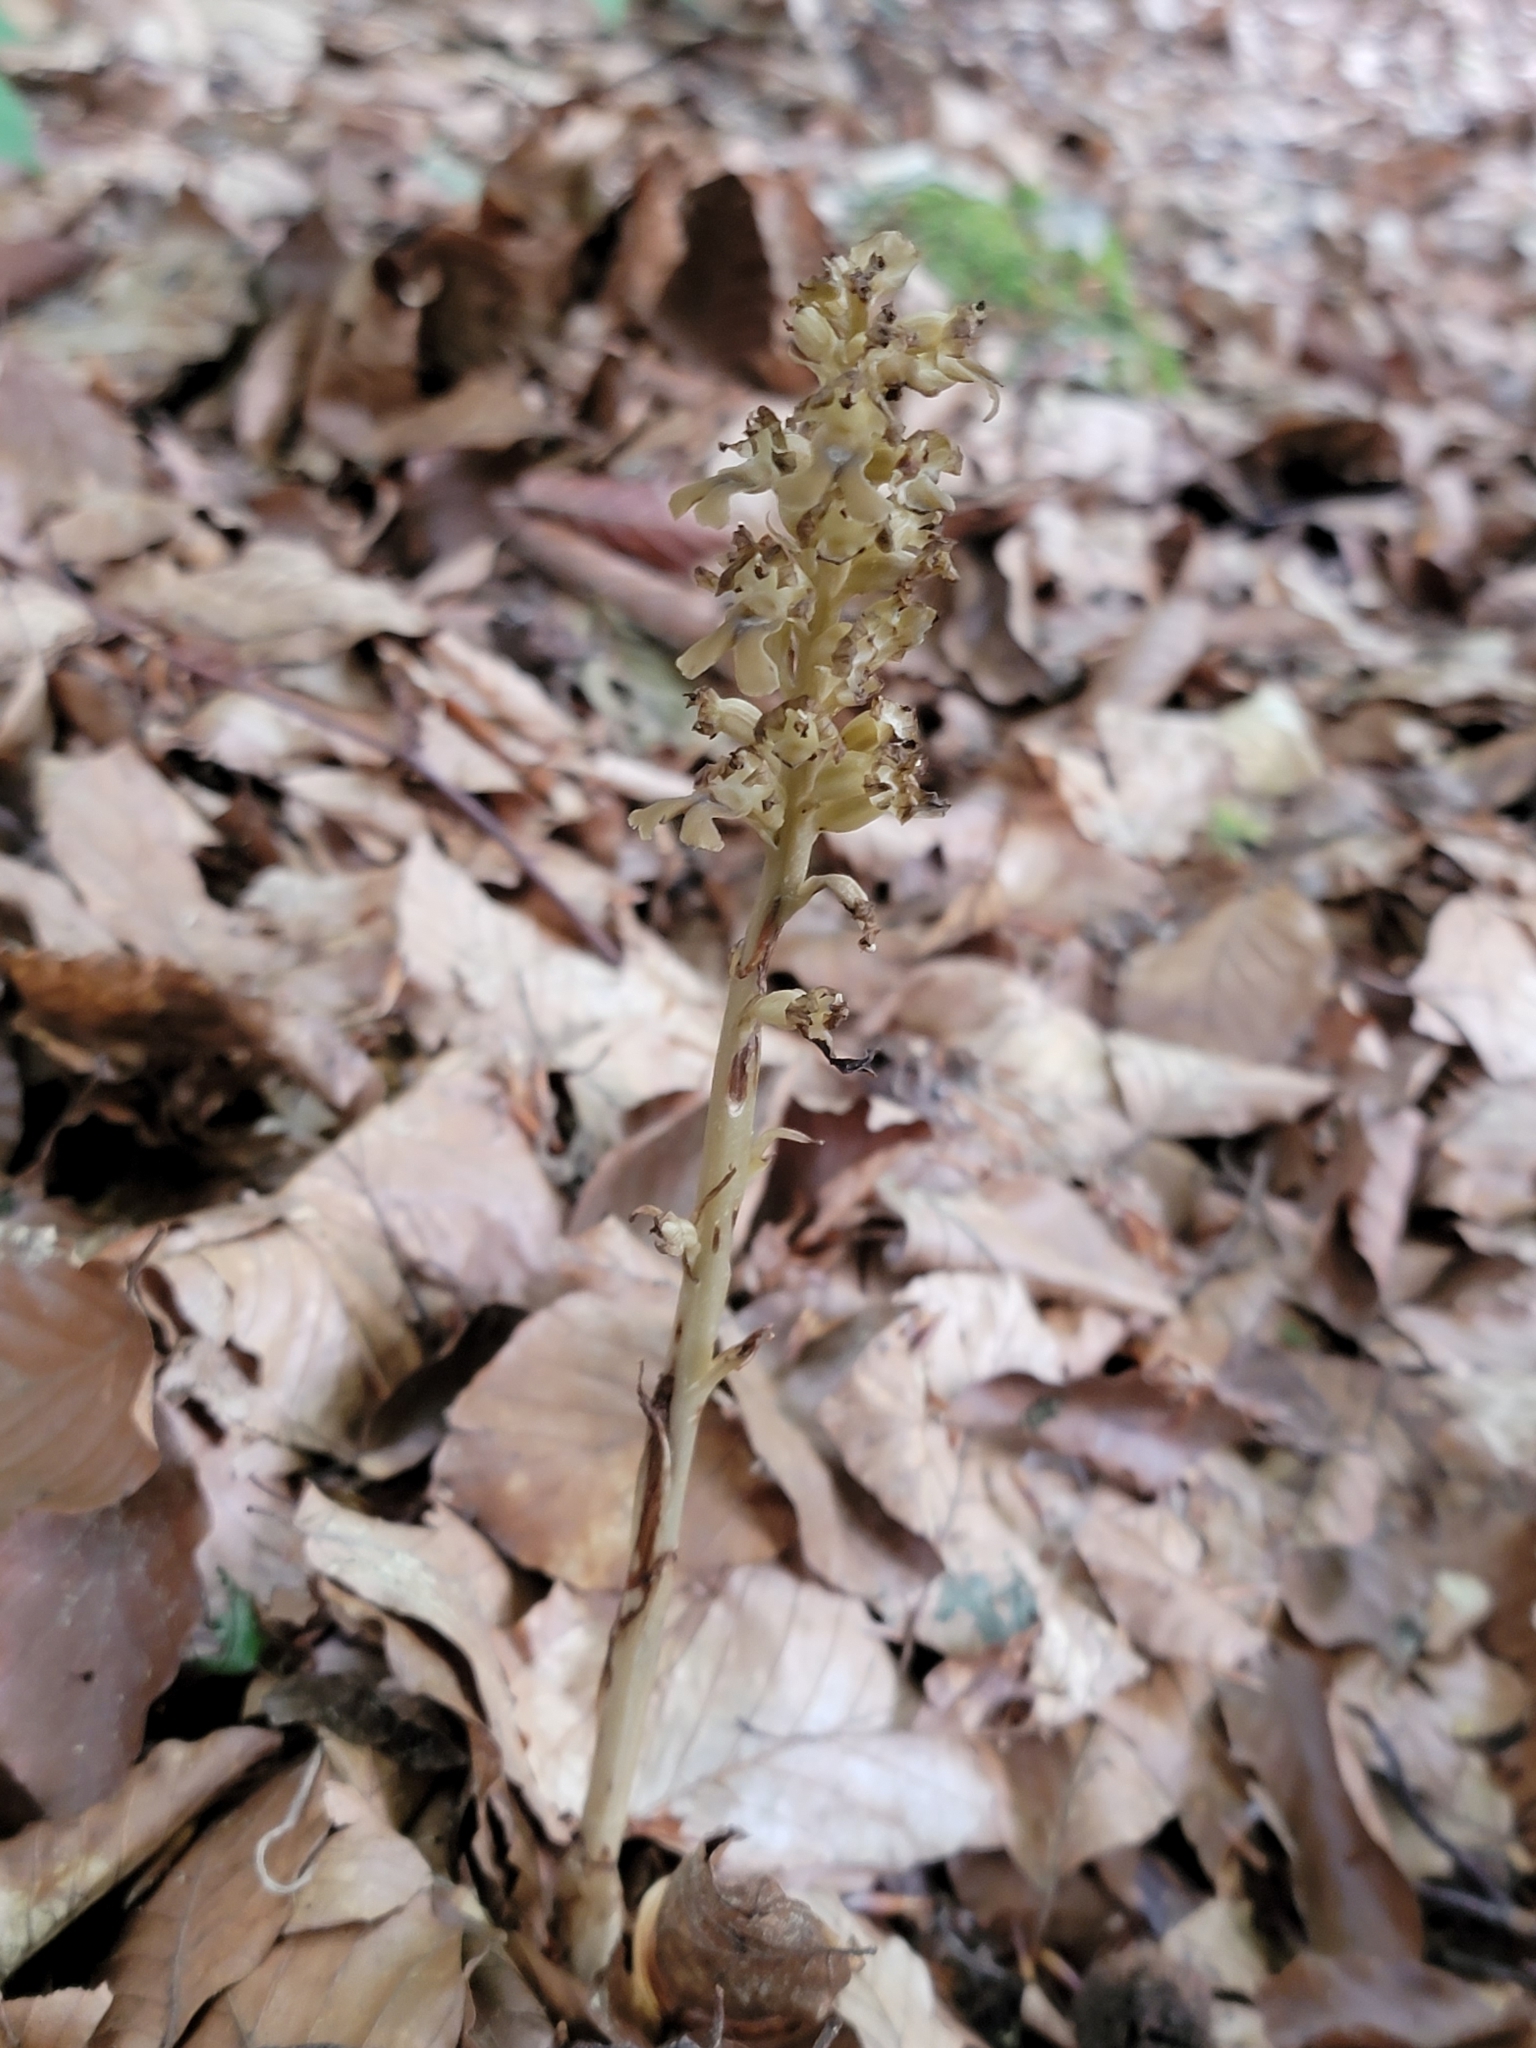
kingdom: Plantae
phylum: Tracheophyta
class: Liliopsida
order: Asparagales
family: Orchidaceae
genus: Neottia
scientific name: Neottia nidus-avis
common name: Bird's-nest orchid
